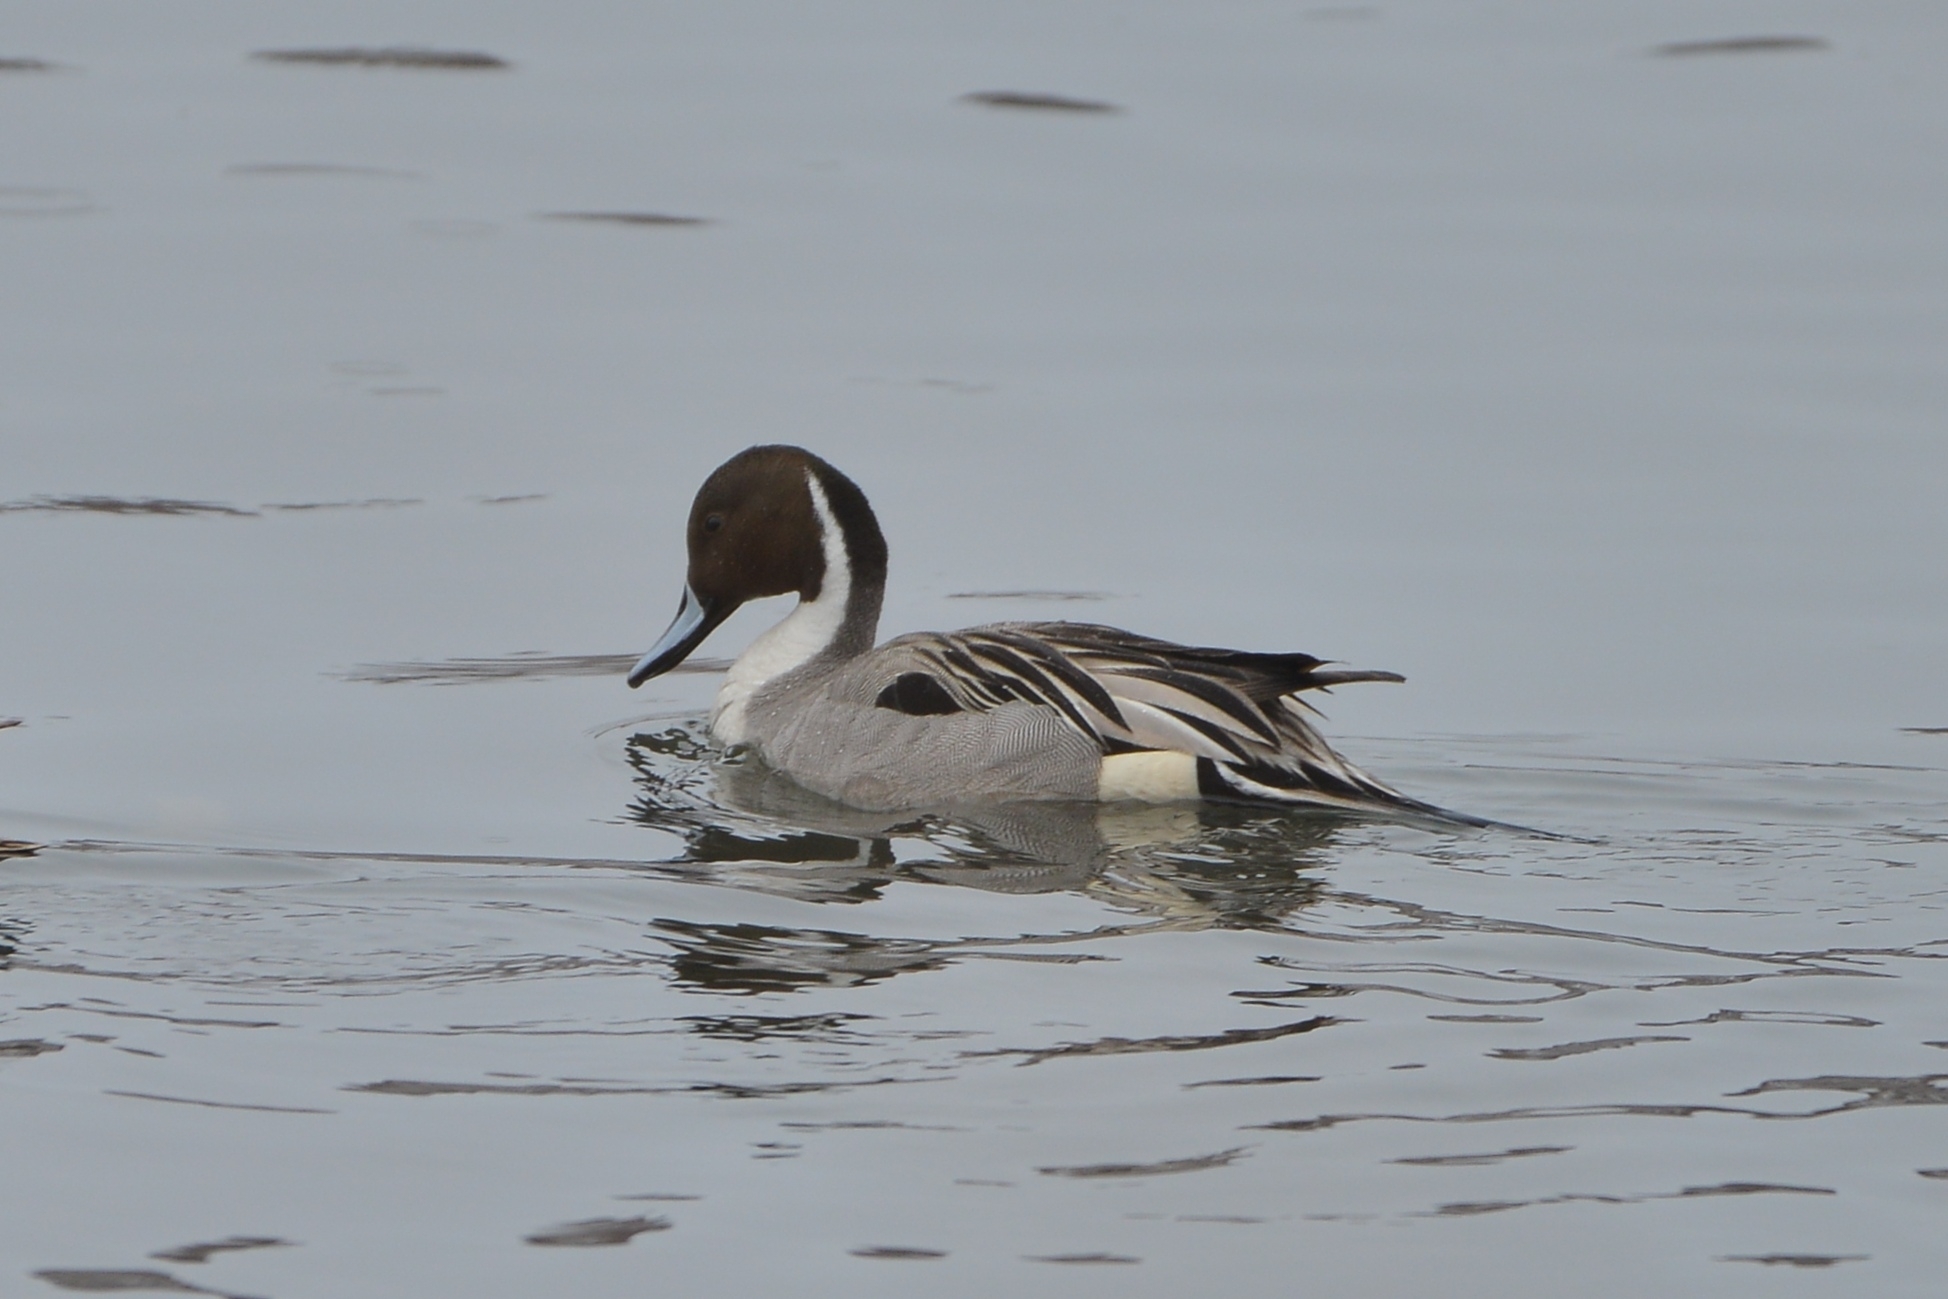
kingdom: Animalia
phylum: Chordata
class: Aves
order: Anseriformes
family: Anatidae
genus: Anas
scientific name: Anas acuta
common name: Northern pintail
